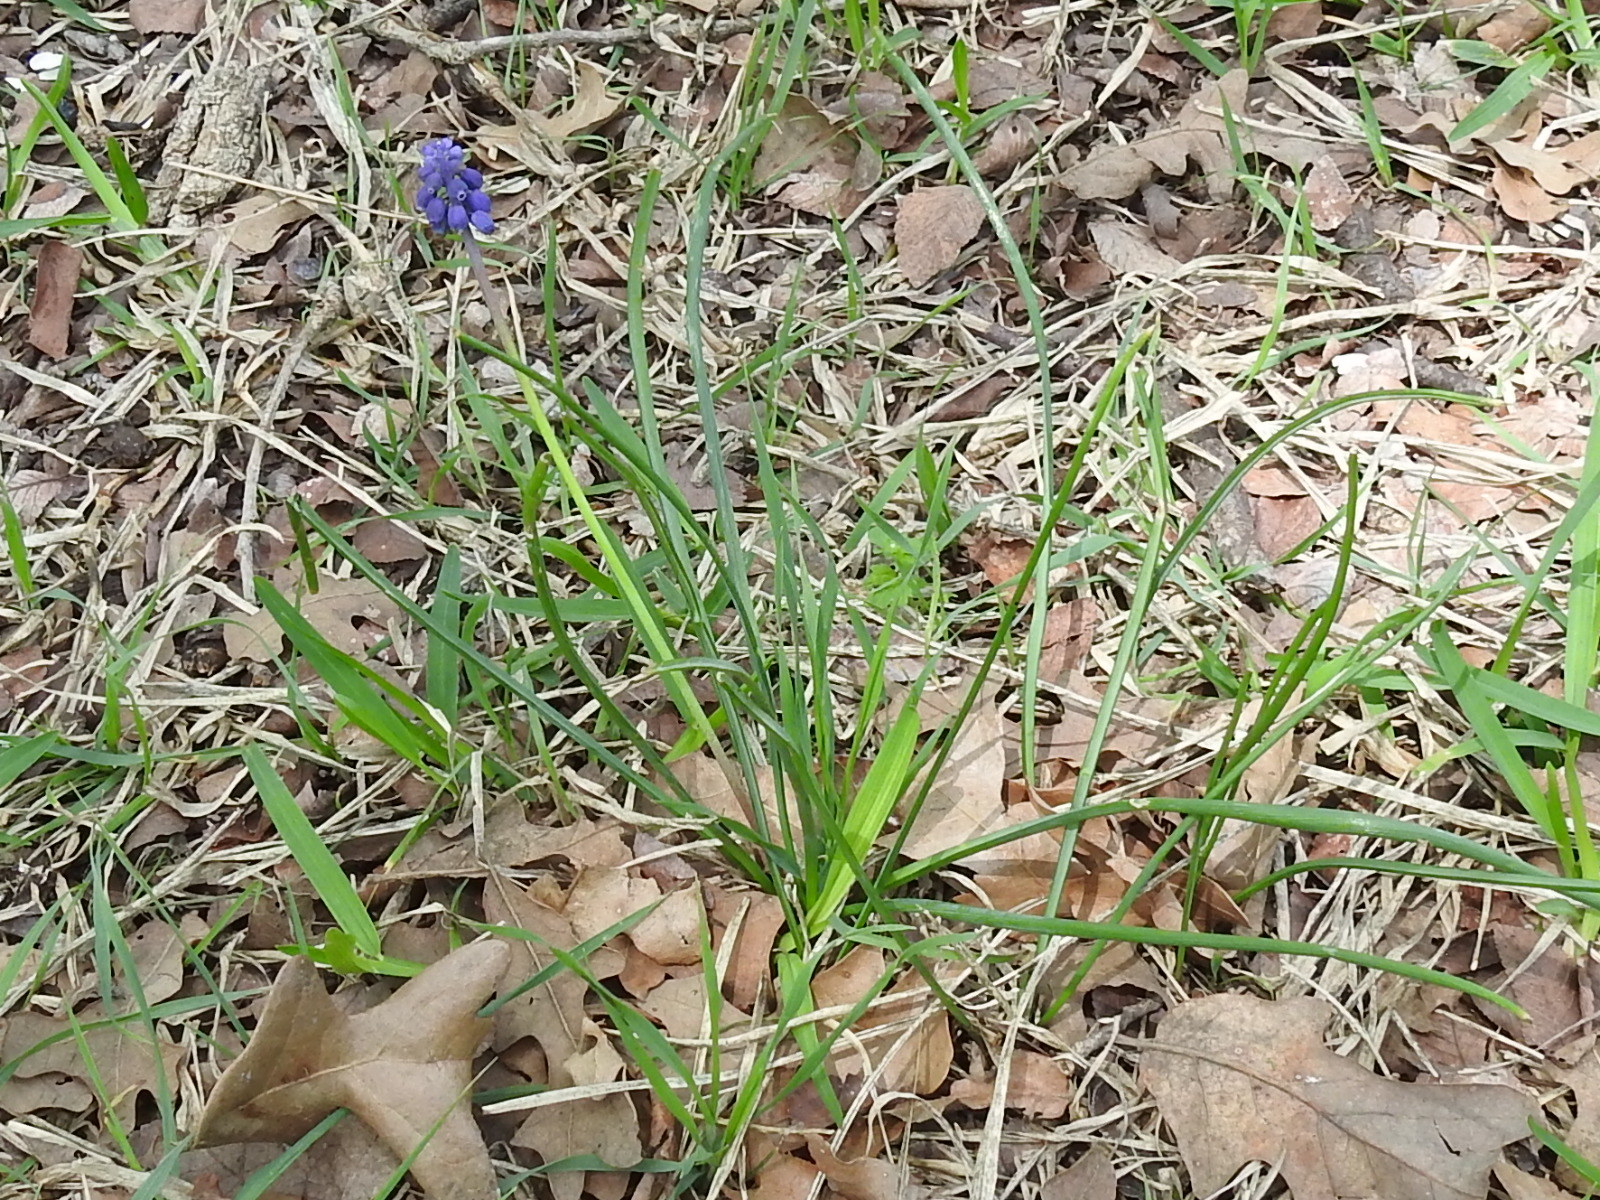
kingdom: Plantae
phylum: Tracheophyta
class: Liliopsida
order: Asparagales
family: Asparagaceae
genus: Muscari
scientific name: Muscari neglectum
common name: Grape-hyacinth
